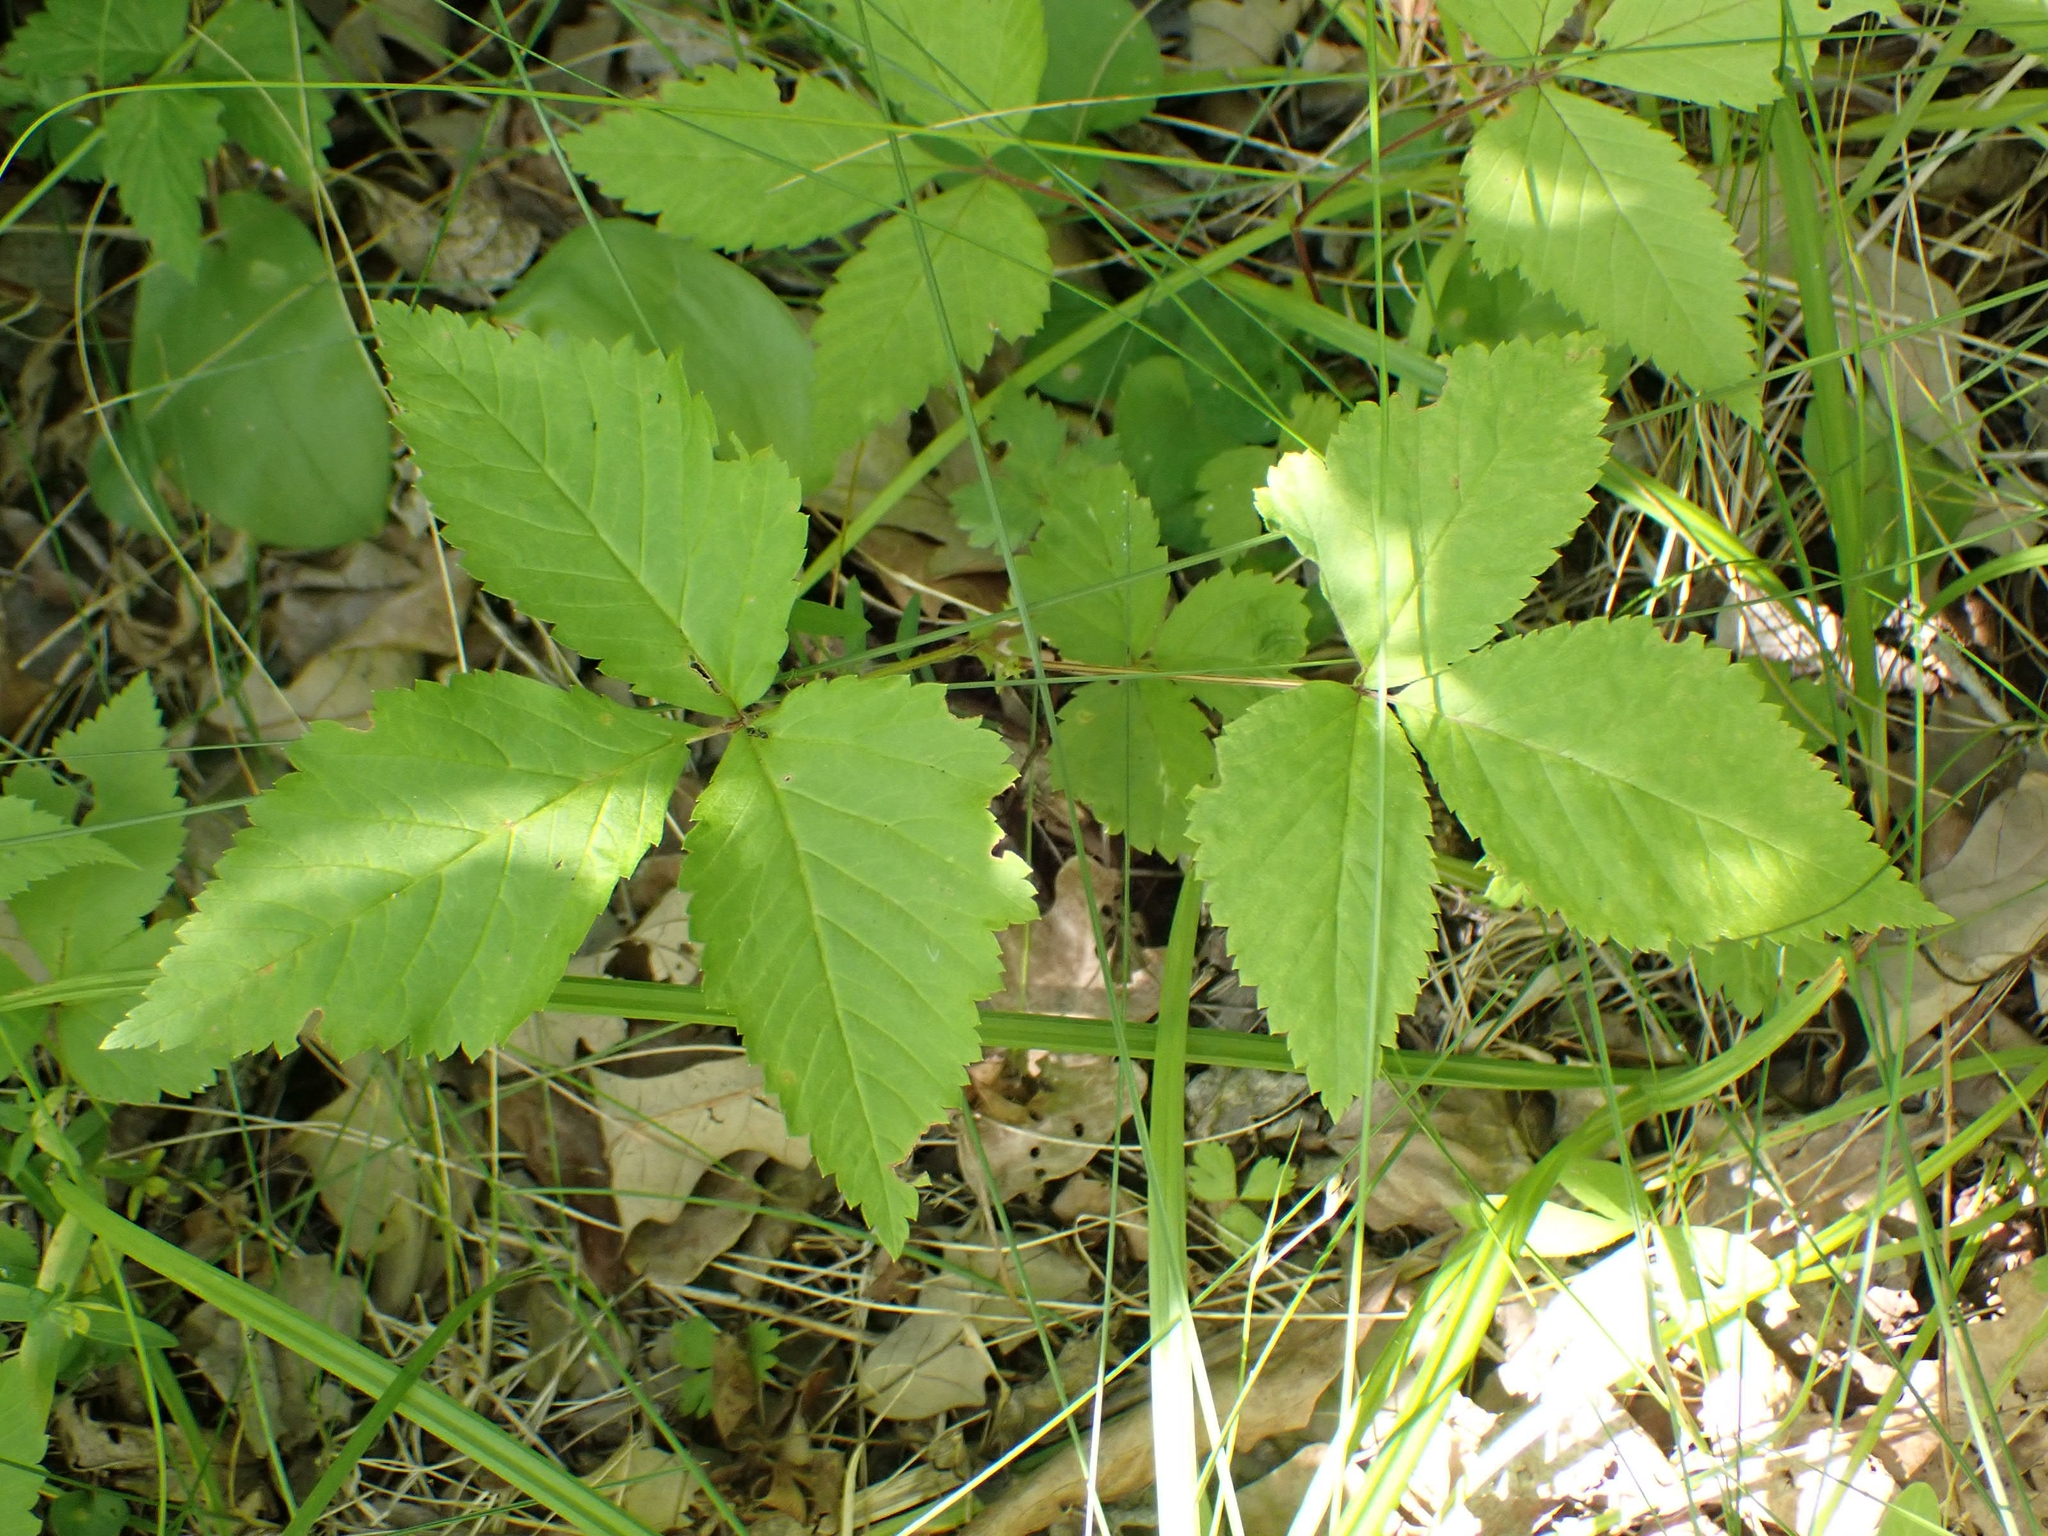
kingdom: Plantae
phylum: Tracheophyta
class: Magnoliopsida
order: Rosales
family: Rosaceae
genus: Rubus
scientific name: Rubus pubescens
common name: Dwarf raspberry
